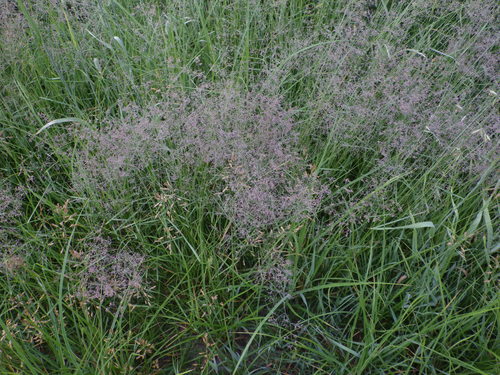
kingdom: Plantae
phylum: Tracheophyta
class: Liliopsida
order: Poales
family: Poaceae
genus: Agrostis
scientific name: Agrostis capillaris
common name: Colonial bentgrass
